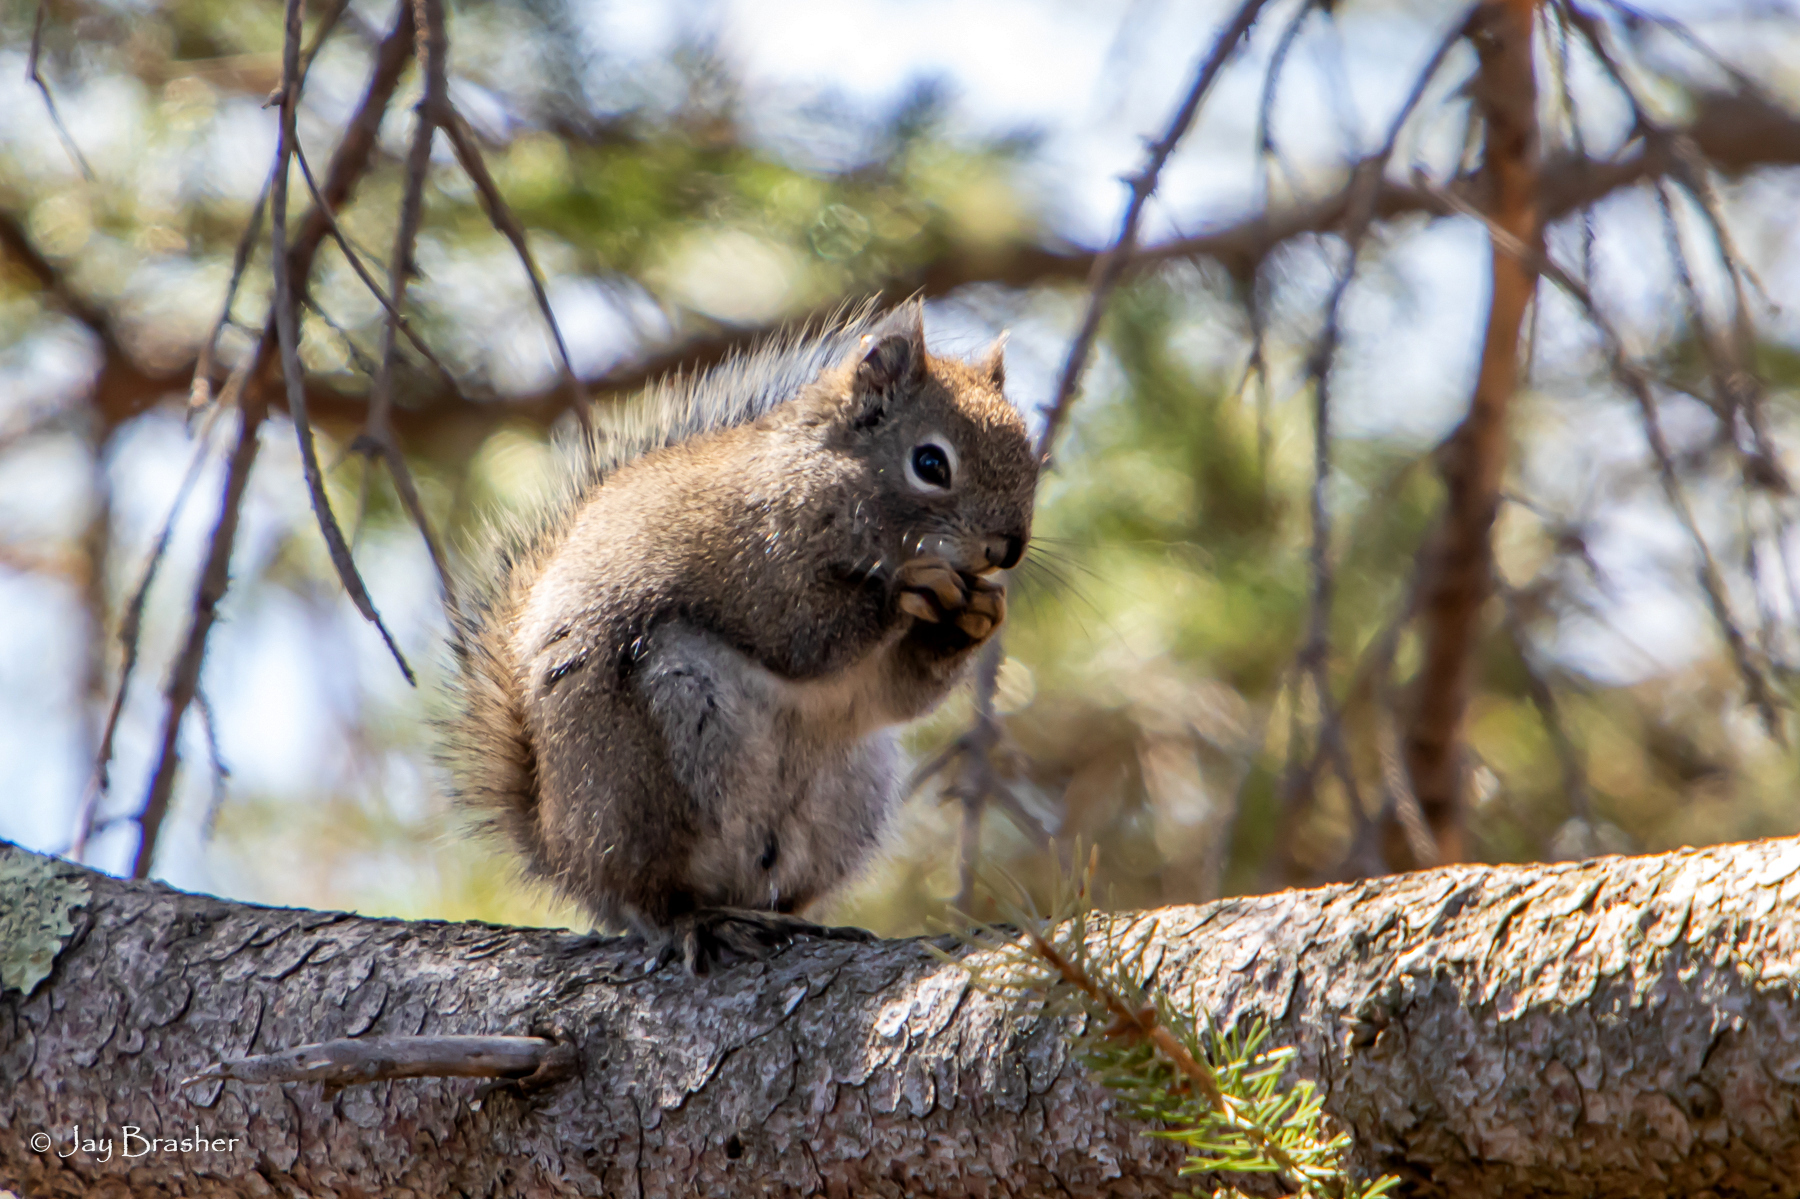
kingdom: Animalia
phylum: Chordata
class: Mammalia
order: Rodentia
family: Sciuridae
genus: Tamiasciurus
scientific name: Tamiasciurus hudsonicus
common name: Red squirrel
